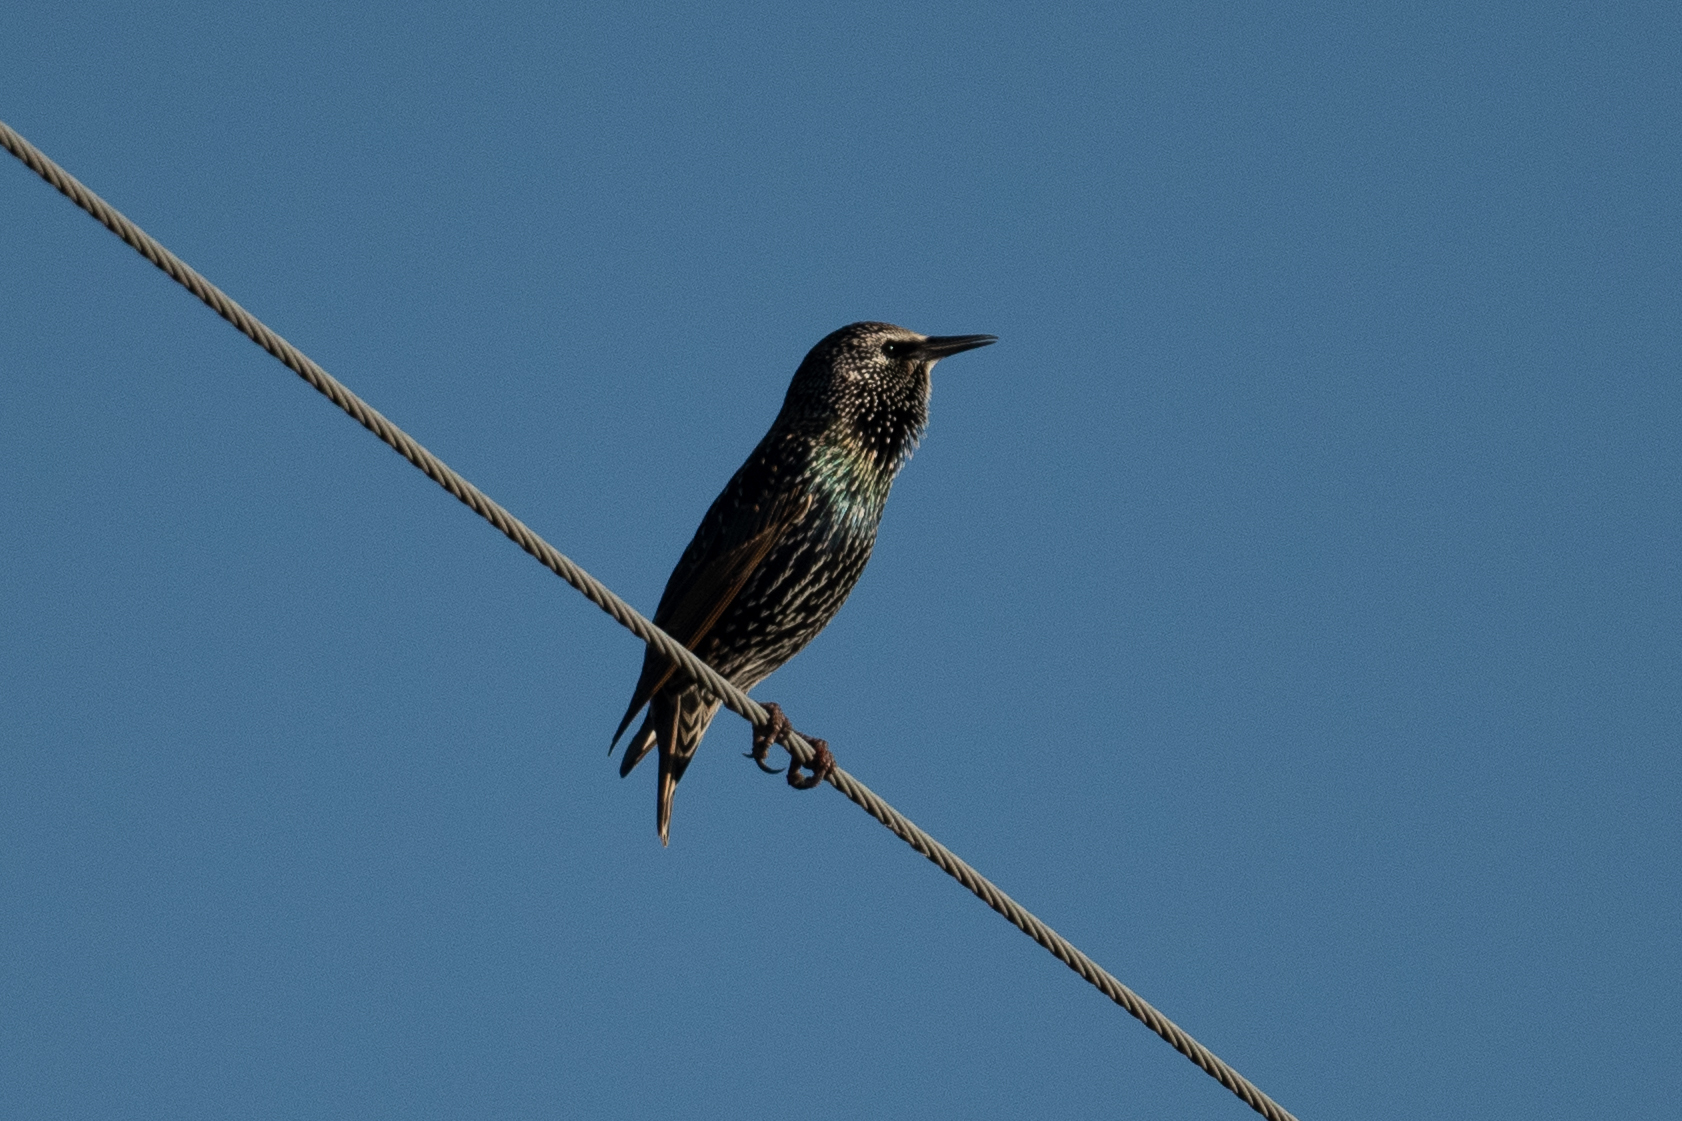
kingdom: Animalia
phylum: Chordata
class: Aves
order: Passeriformes
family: Sturnidae
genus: Sturnus
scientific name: Sturnus vulgaris
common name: Common starling
